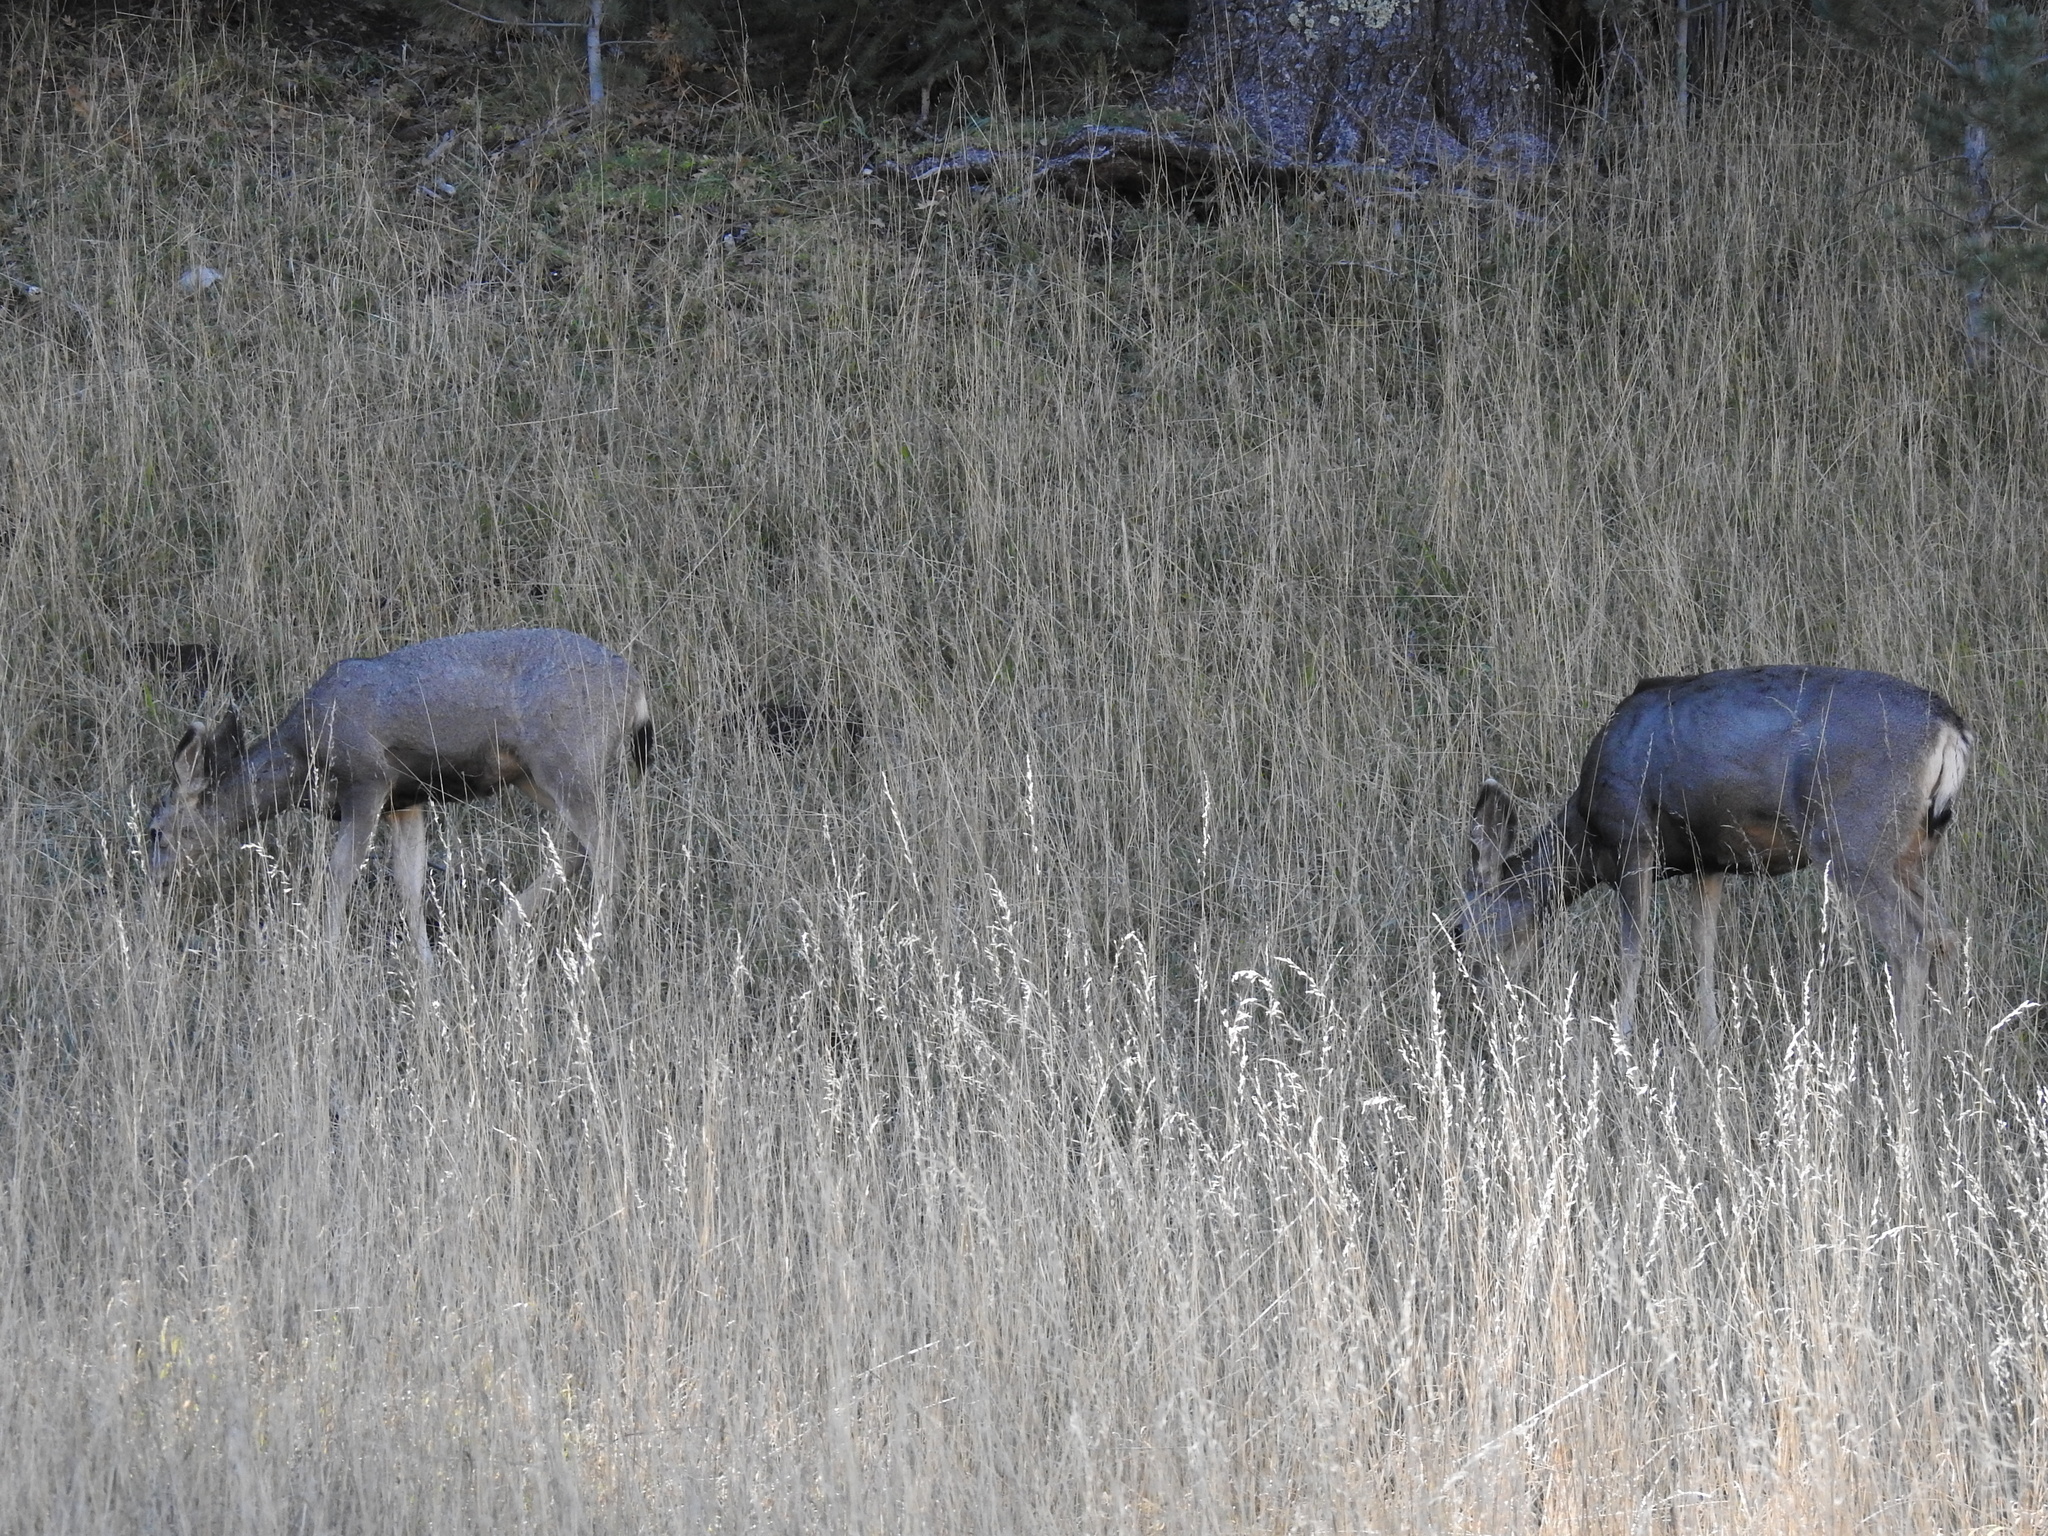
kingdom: Animalia
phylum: Chordata
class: Mammalia
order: Artiodactyla
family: Cervidae
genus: Odocoileus
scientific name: Odocoileus hemionus
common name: Mule deer
